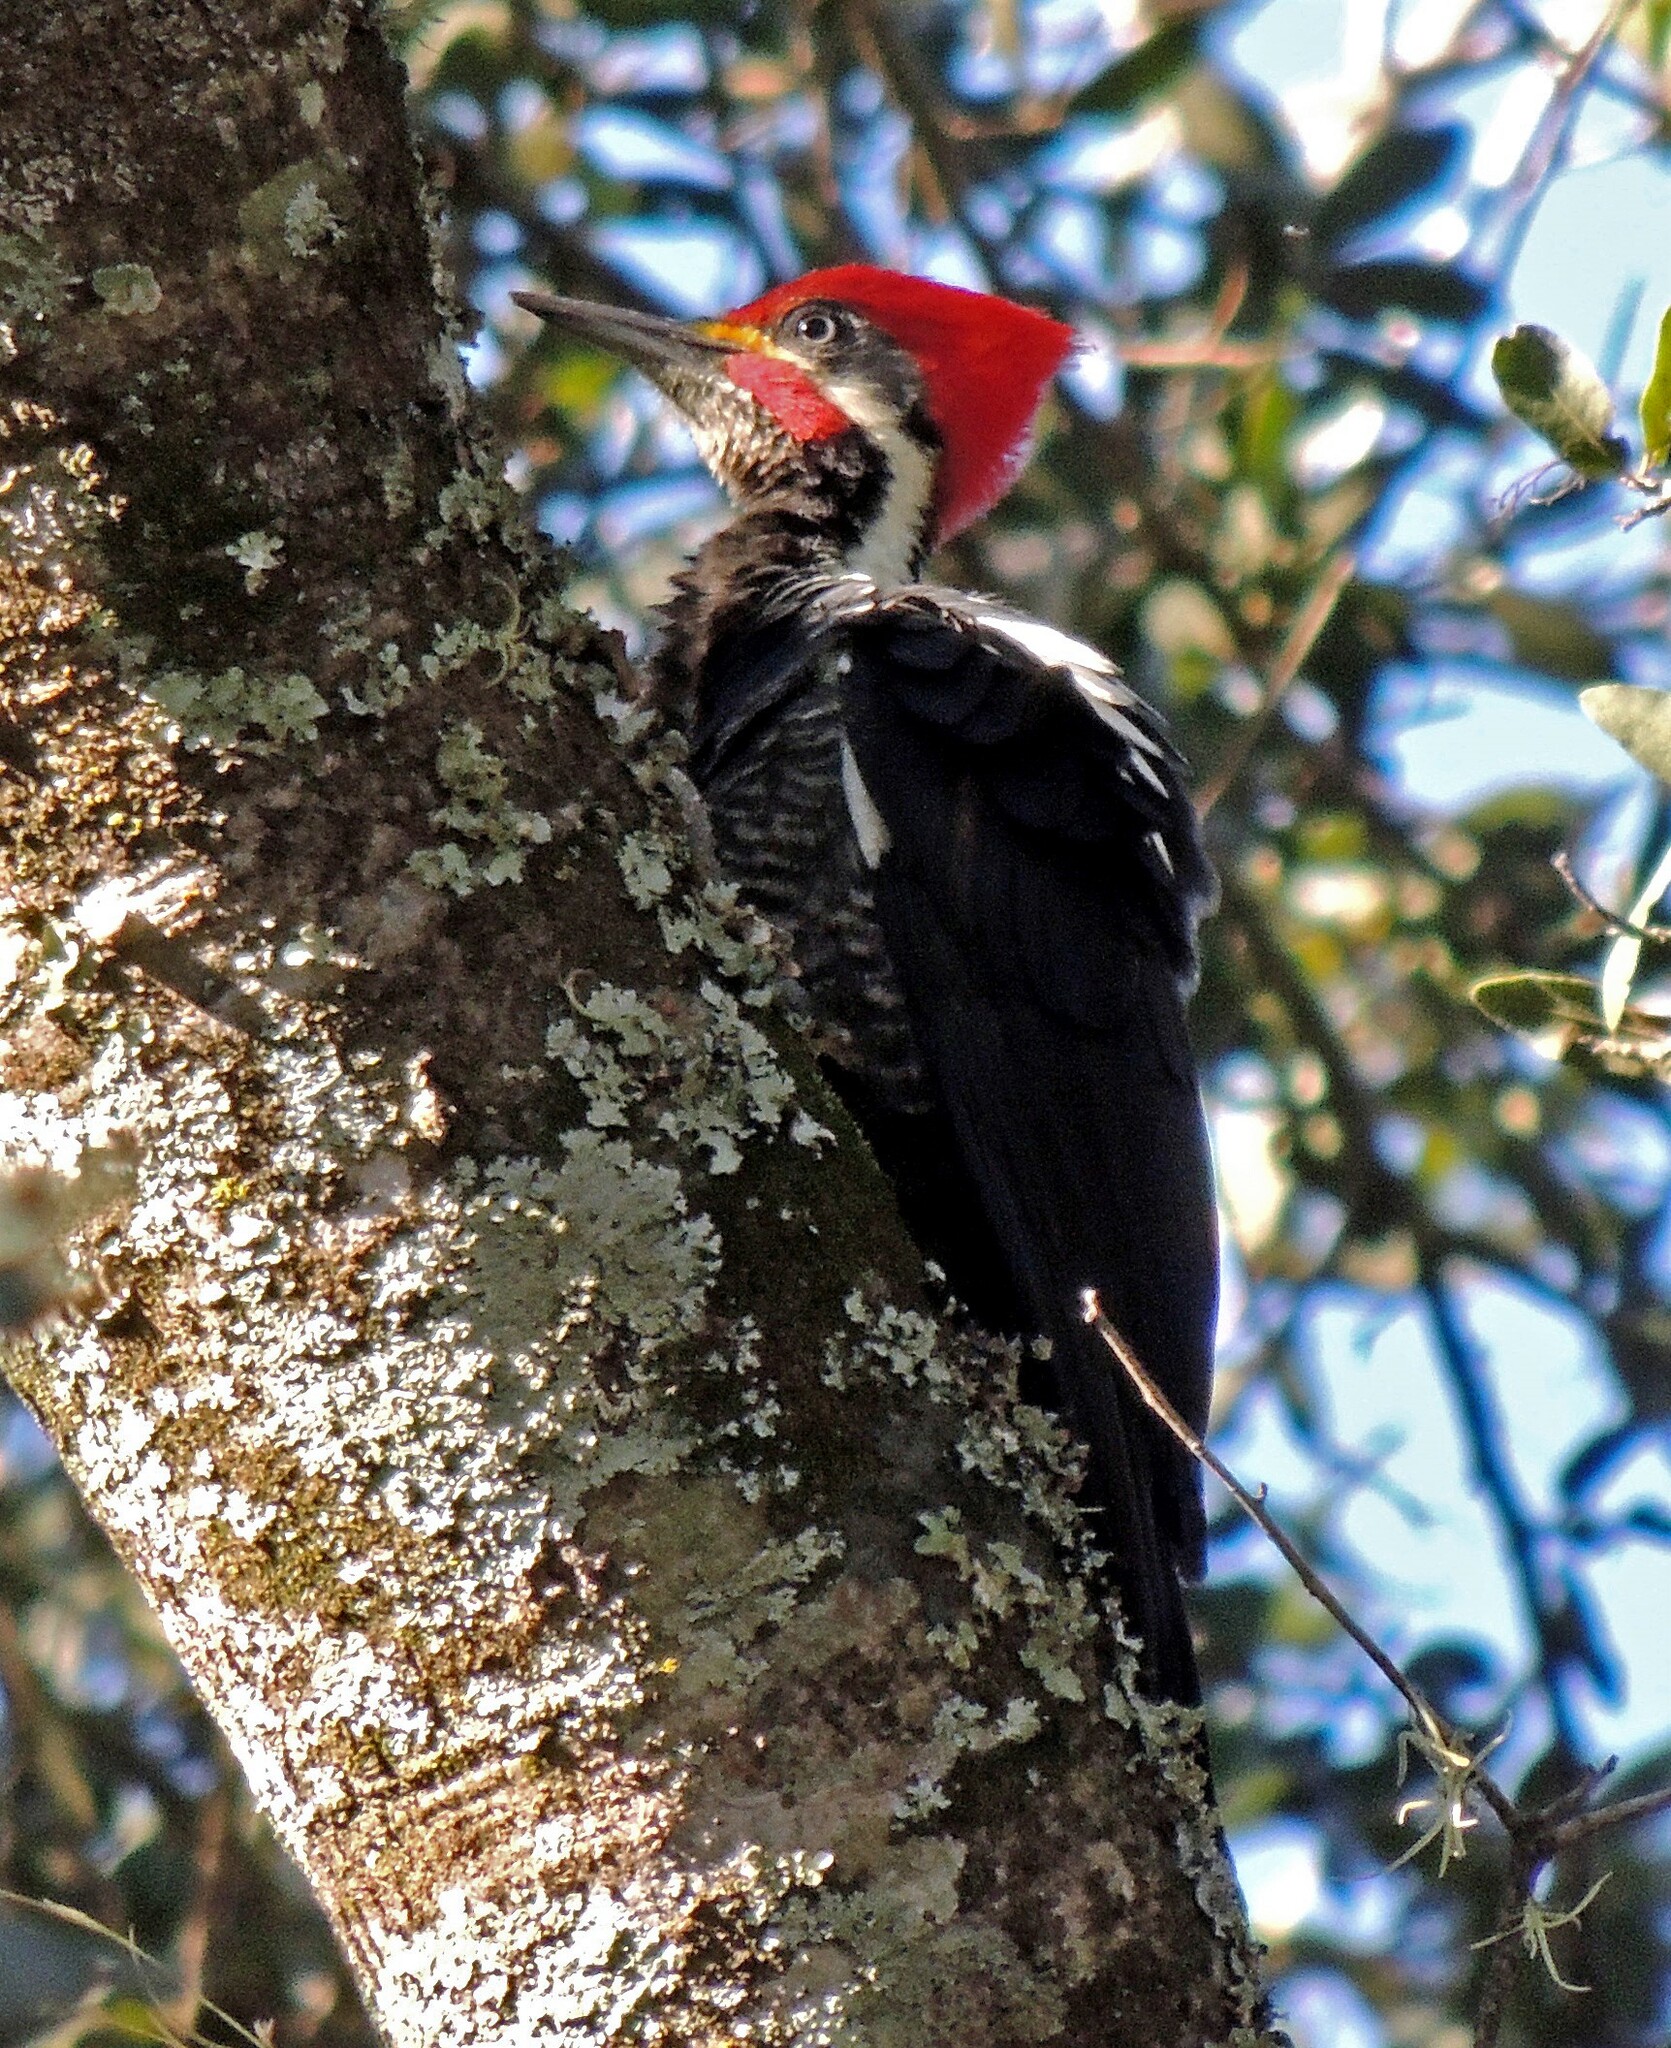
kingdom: Animalia
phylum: Chordata
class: Aves
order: Piciformes
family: Picidae
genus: Dryocopus
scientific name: Dryocopus lineatus
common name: Lineated woodpecker
